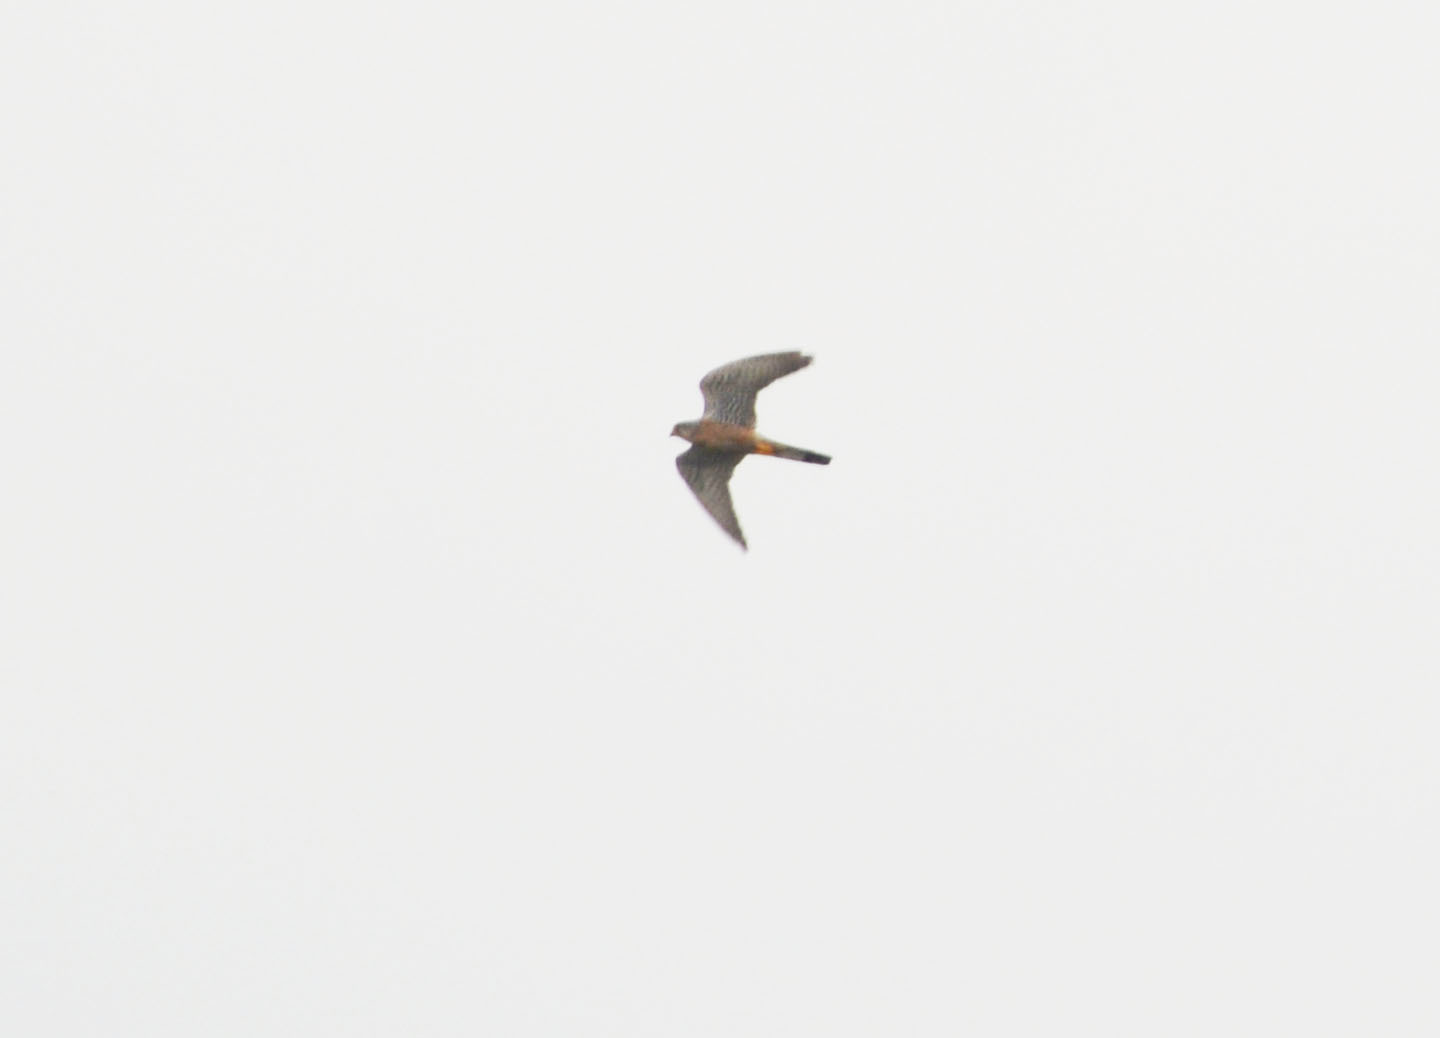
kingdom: Animalia
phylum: Chordata
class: Aves
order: Falconiformes
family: Falconidae
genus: Falco
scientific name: Falco tinnunculus
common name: Common kestrel
